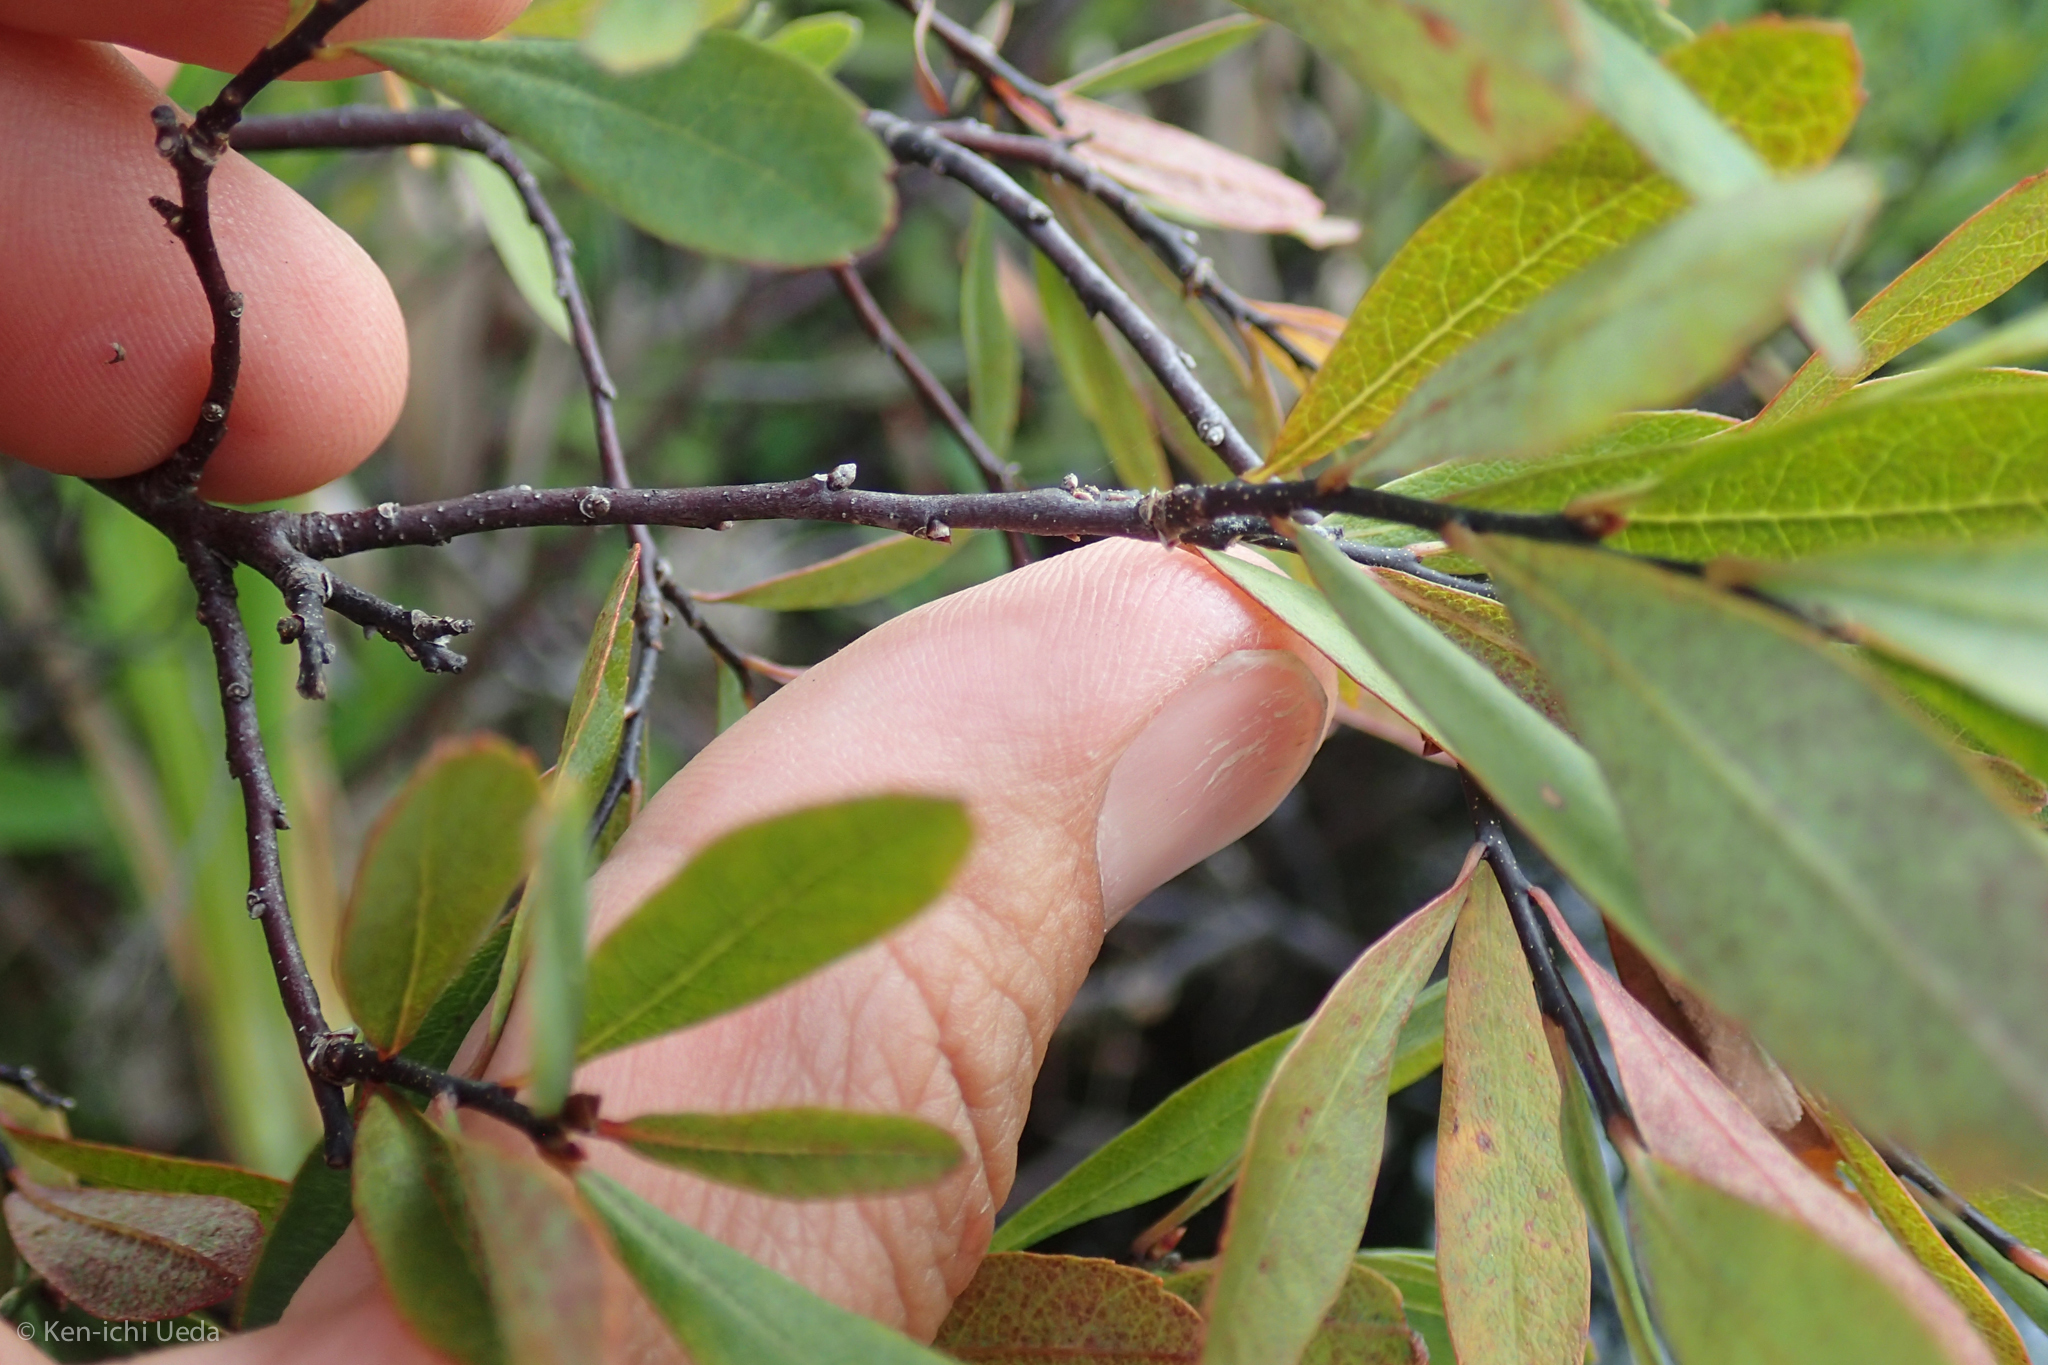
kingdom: Plantae
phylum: Tracheophyta
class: Magnoliopsida
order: Fagales
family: Myricaceae
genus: Myrica
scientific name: Myrica gale
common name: Sweet gale
